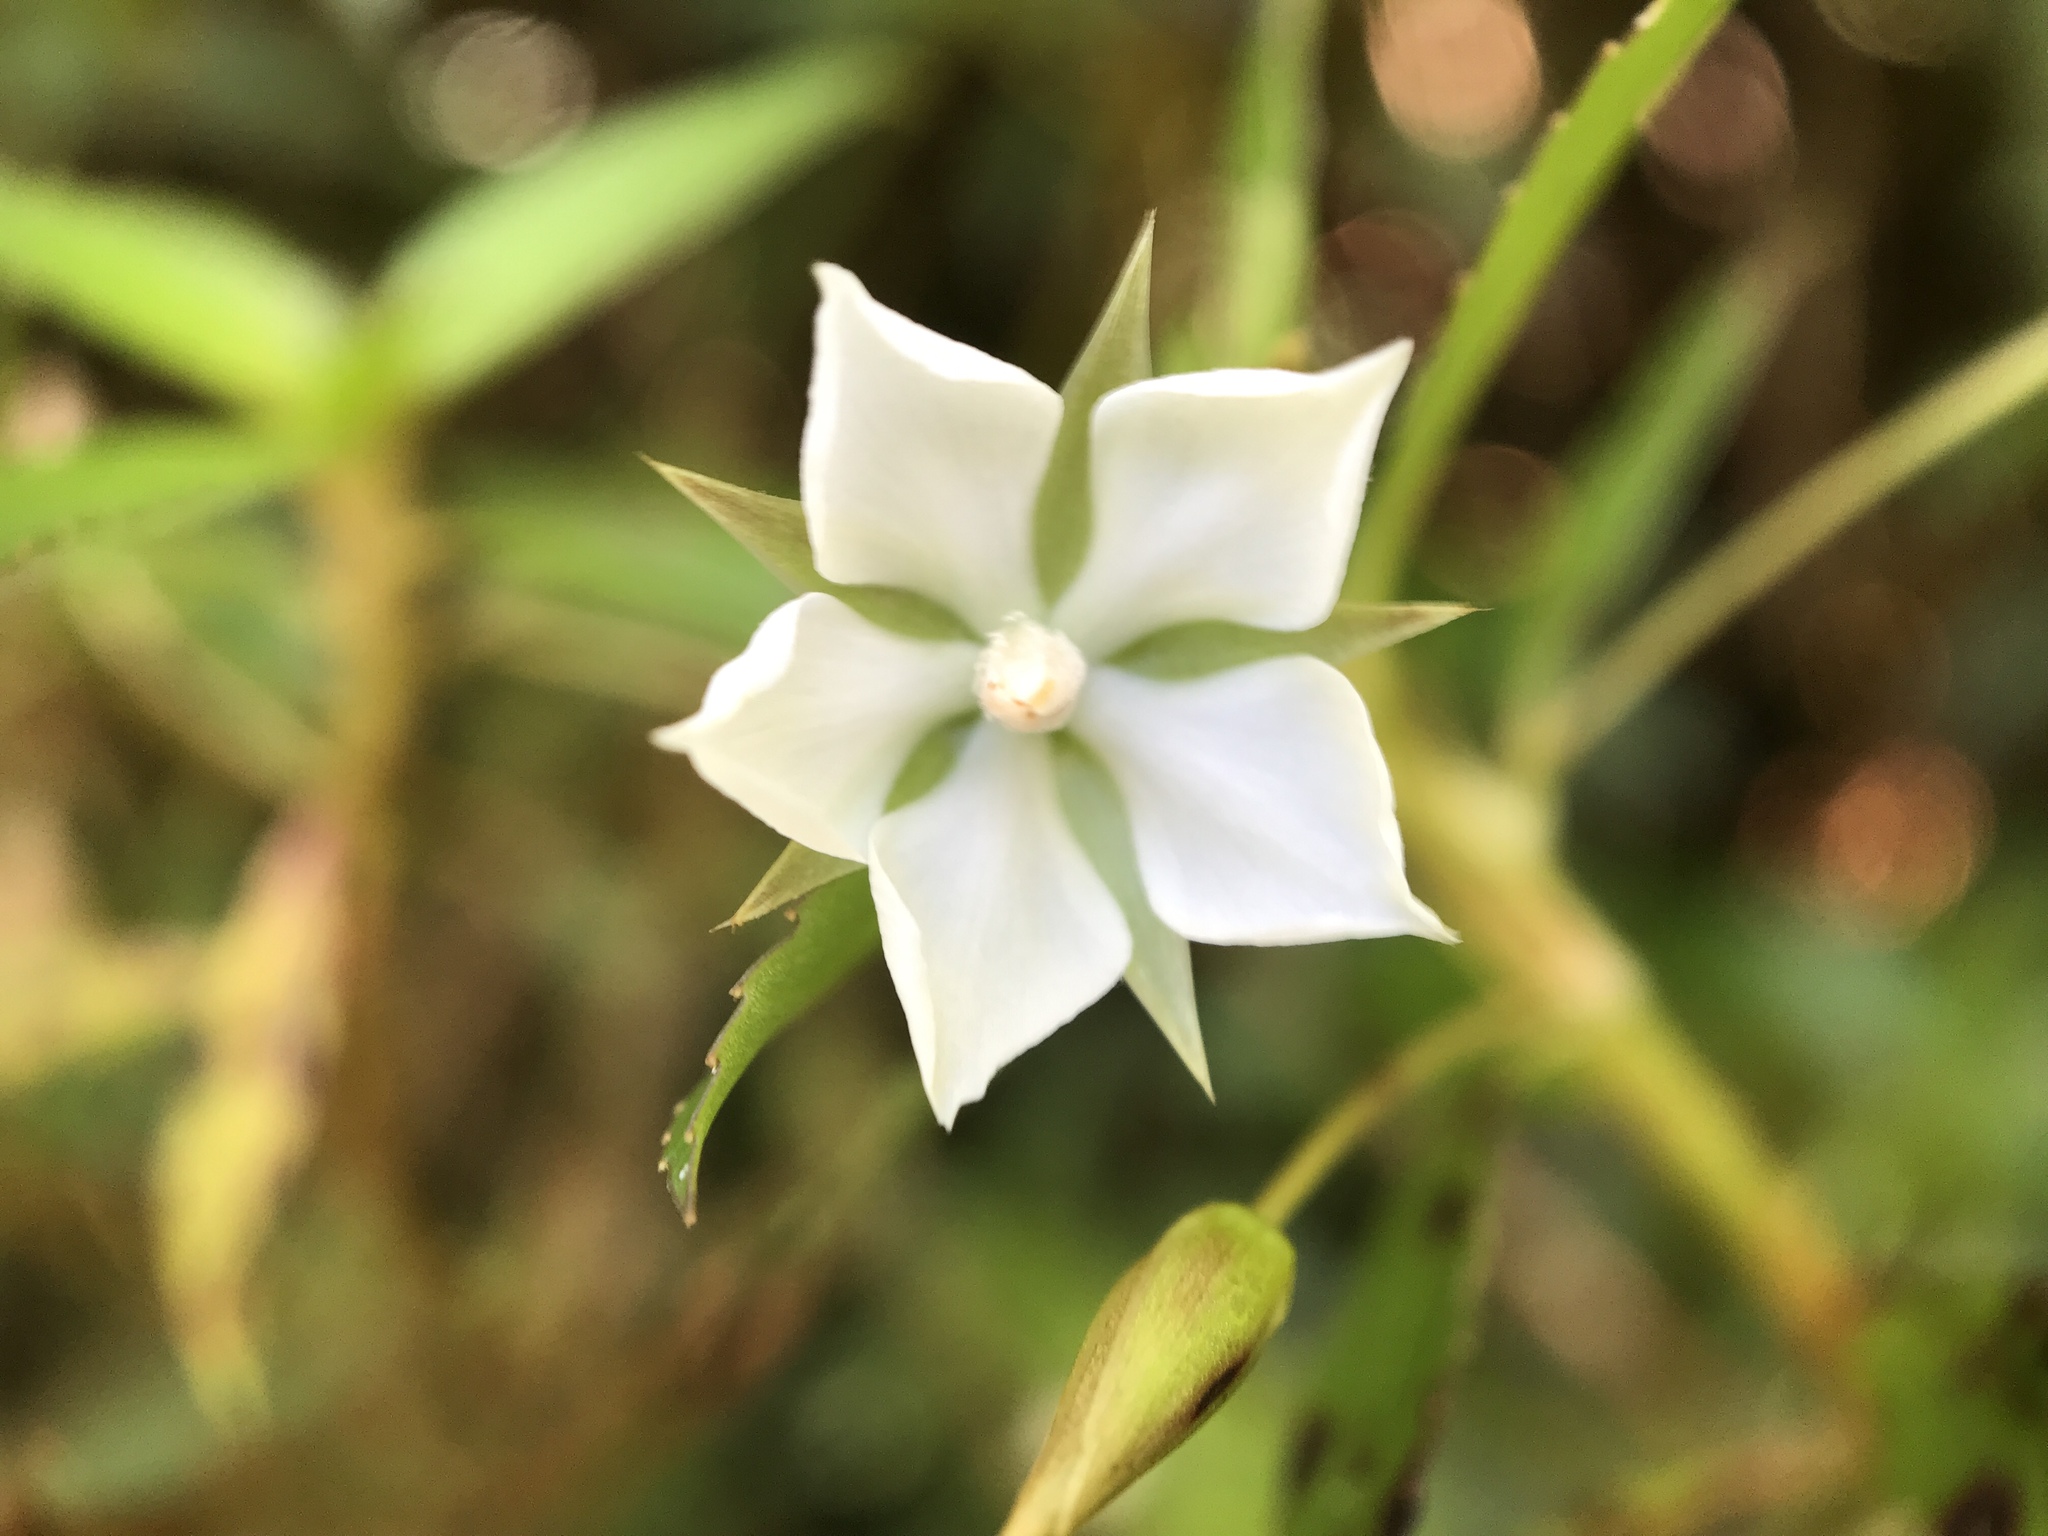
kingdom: Plantae
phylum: Tracheophyta
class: Magnoliopsida
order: Malpighiales
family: Ochnaceae
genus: Sauvagesia
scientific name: Sauvagesia erecta
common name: Creole tea
